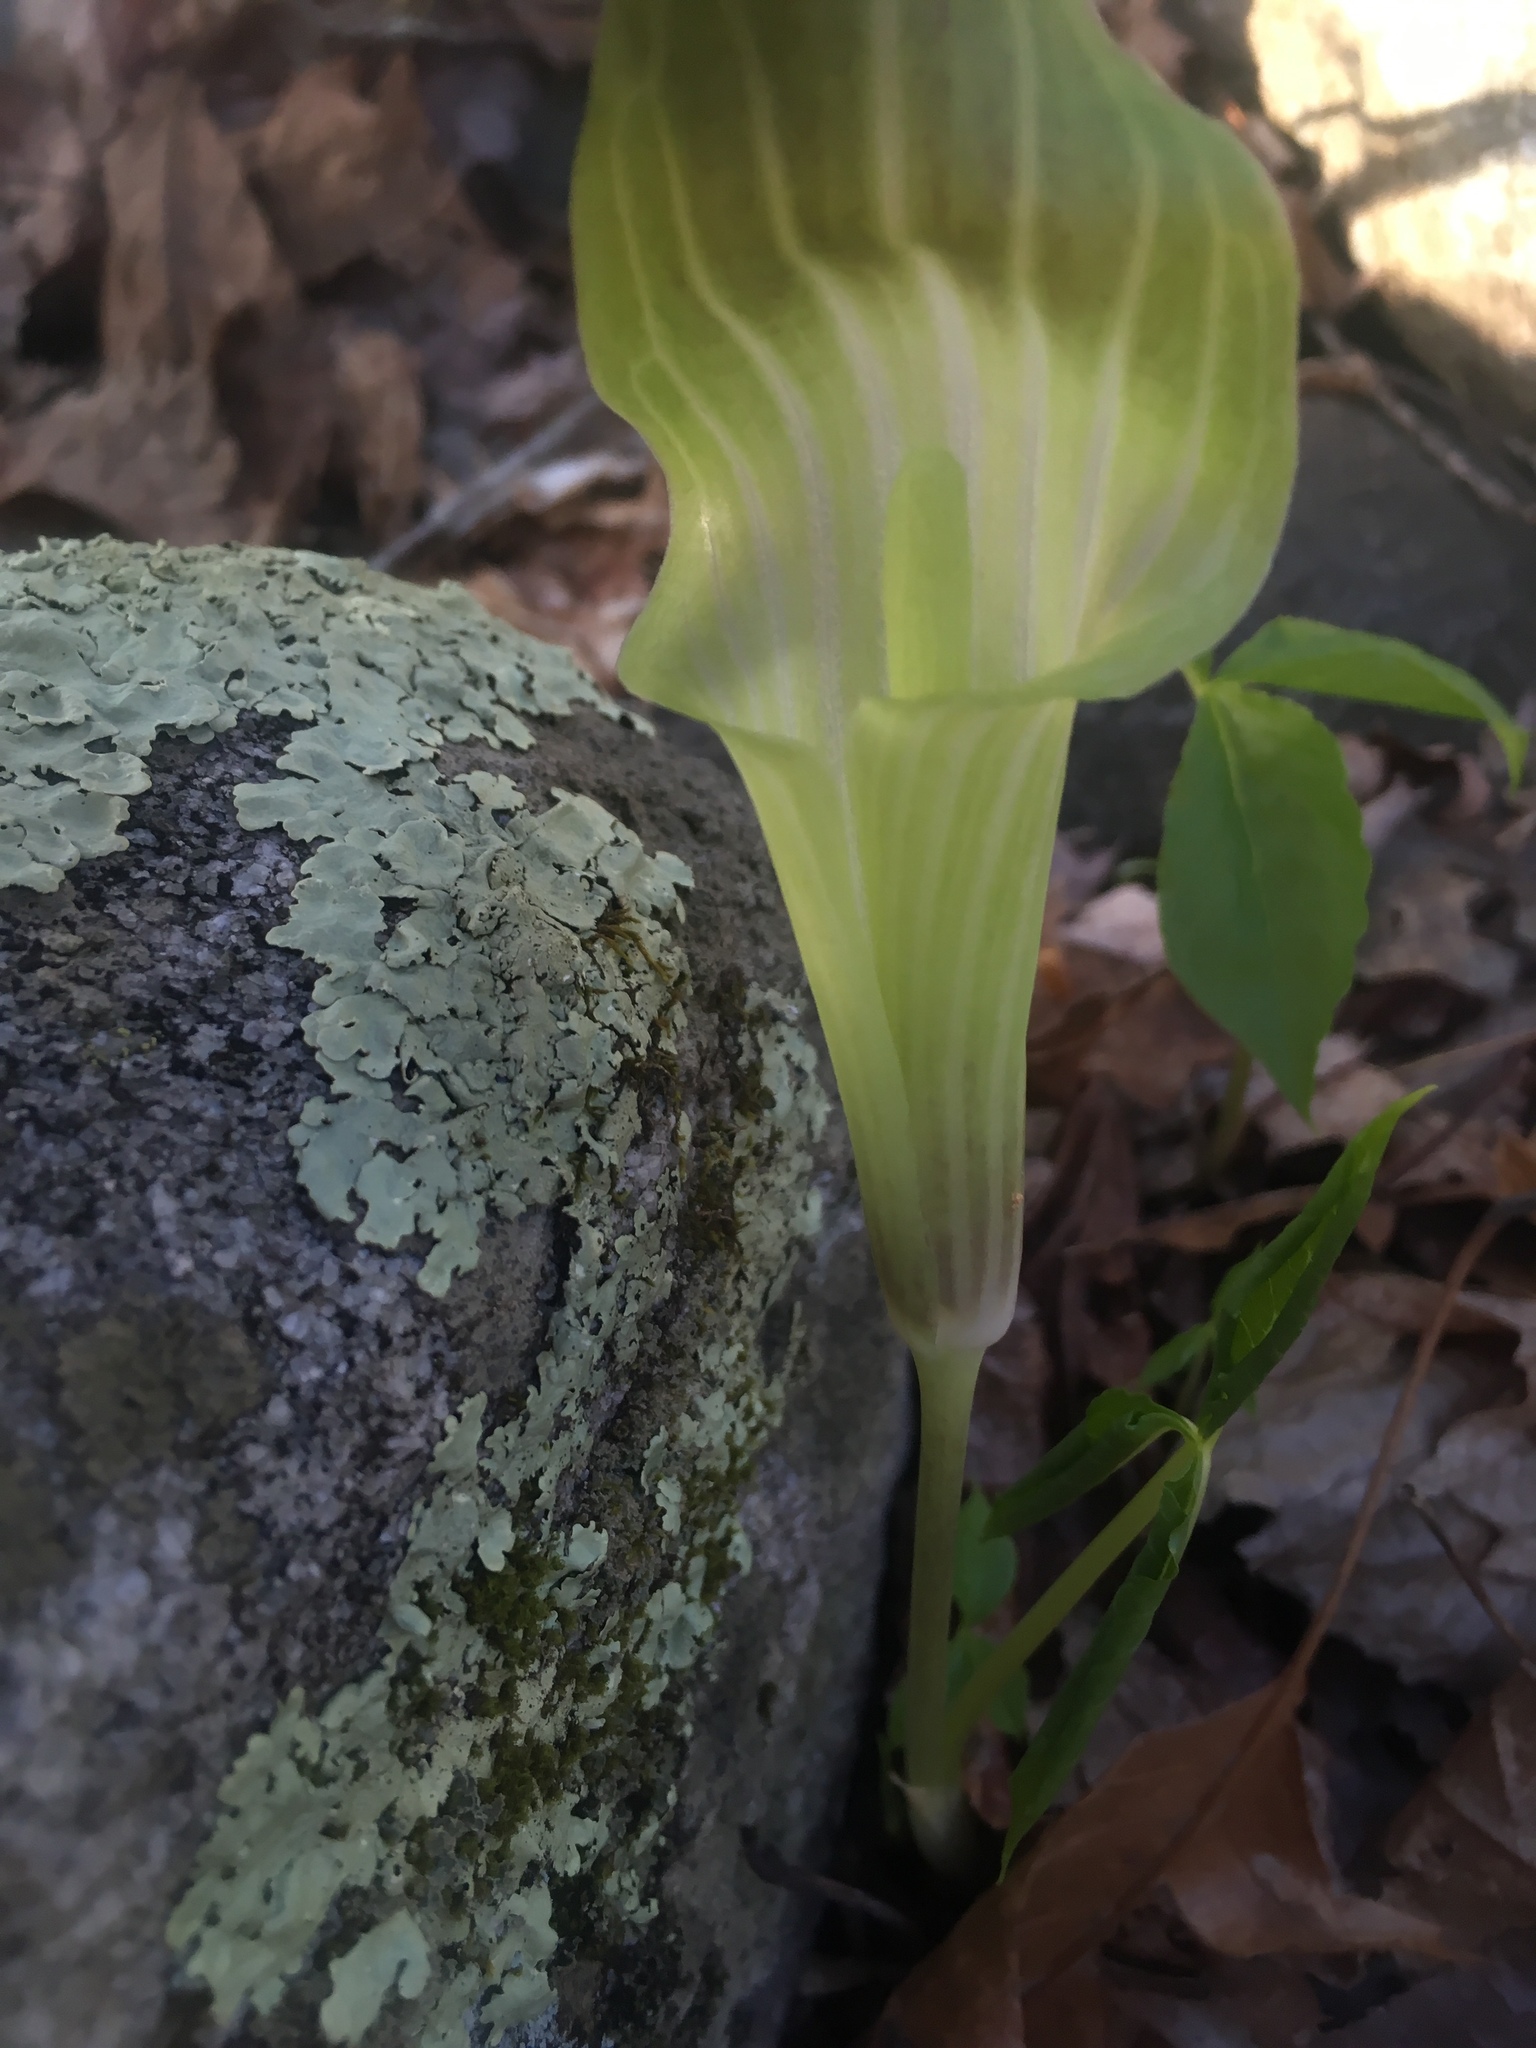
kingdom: Plantae
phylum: Tracheophyta
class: Liliopsida
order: Alismatales
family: Araceae
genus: Arisaema
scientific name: Arisaema triphyllum
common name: Jack-in-the-pulpit
